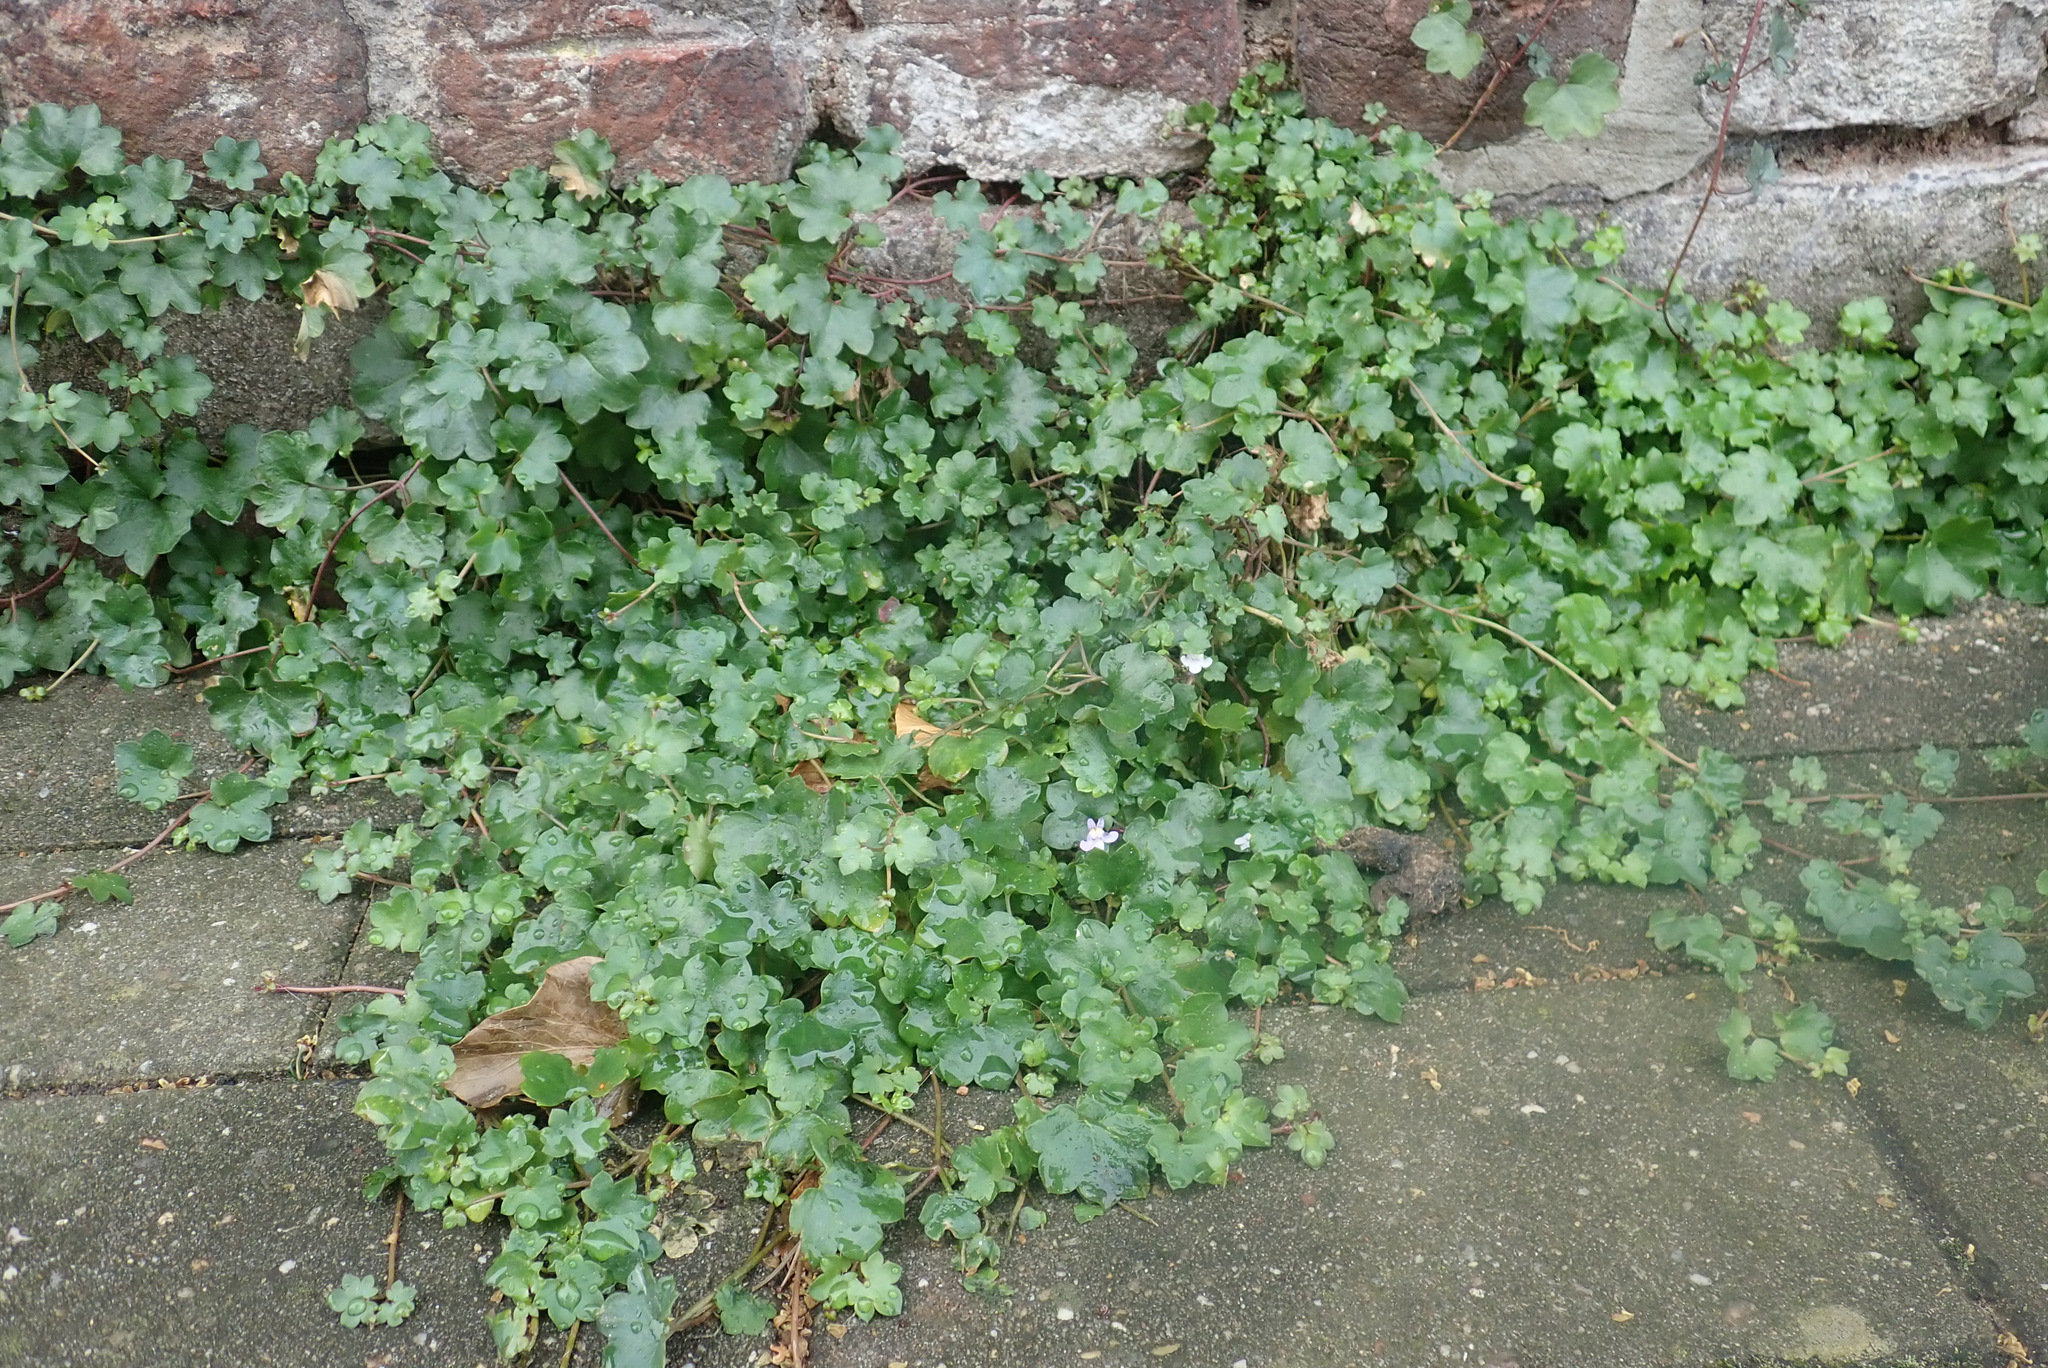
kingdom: Plantae
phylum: Tracheophyta
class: Magnoliopsida
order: Lamiales
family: Plantaginaceae
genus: Cymbalaria
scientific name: Cymbalaria muralis
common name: Ivy-leaved toadflax
